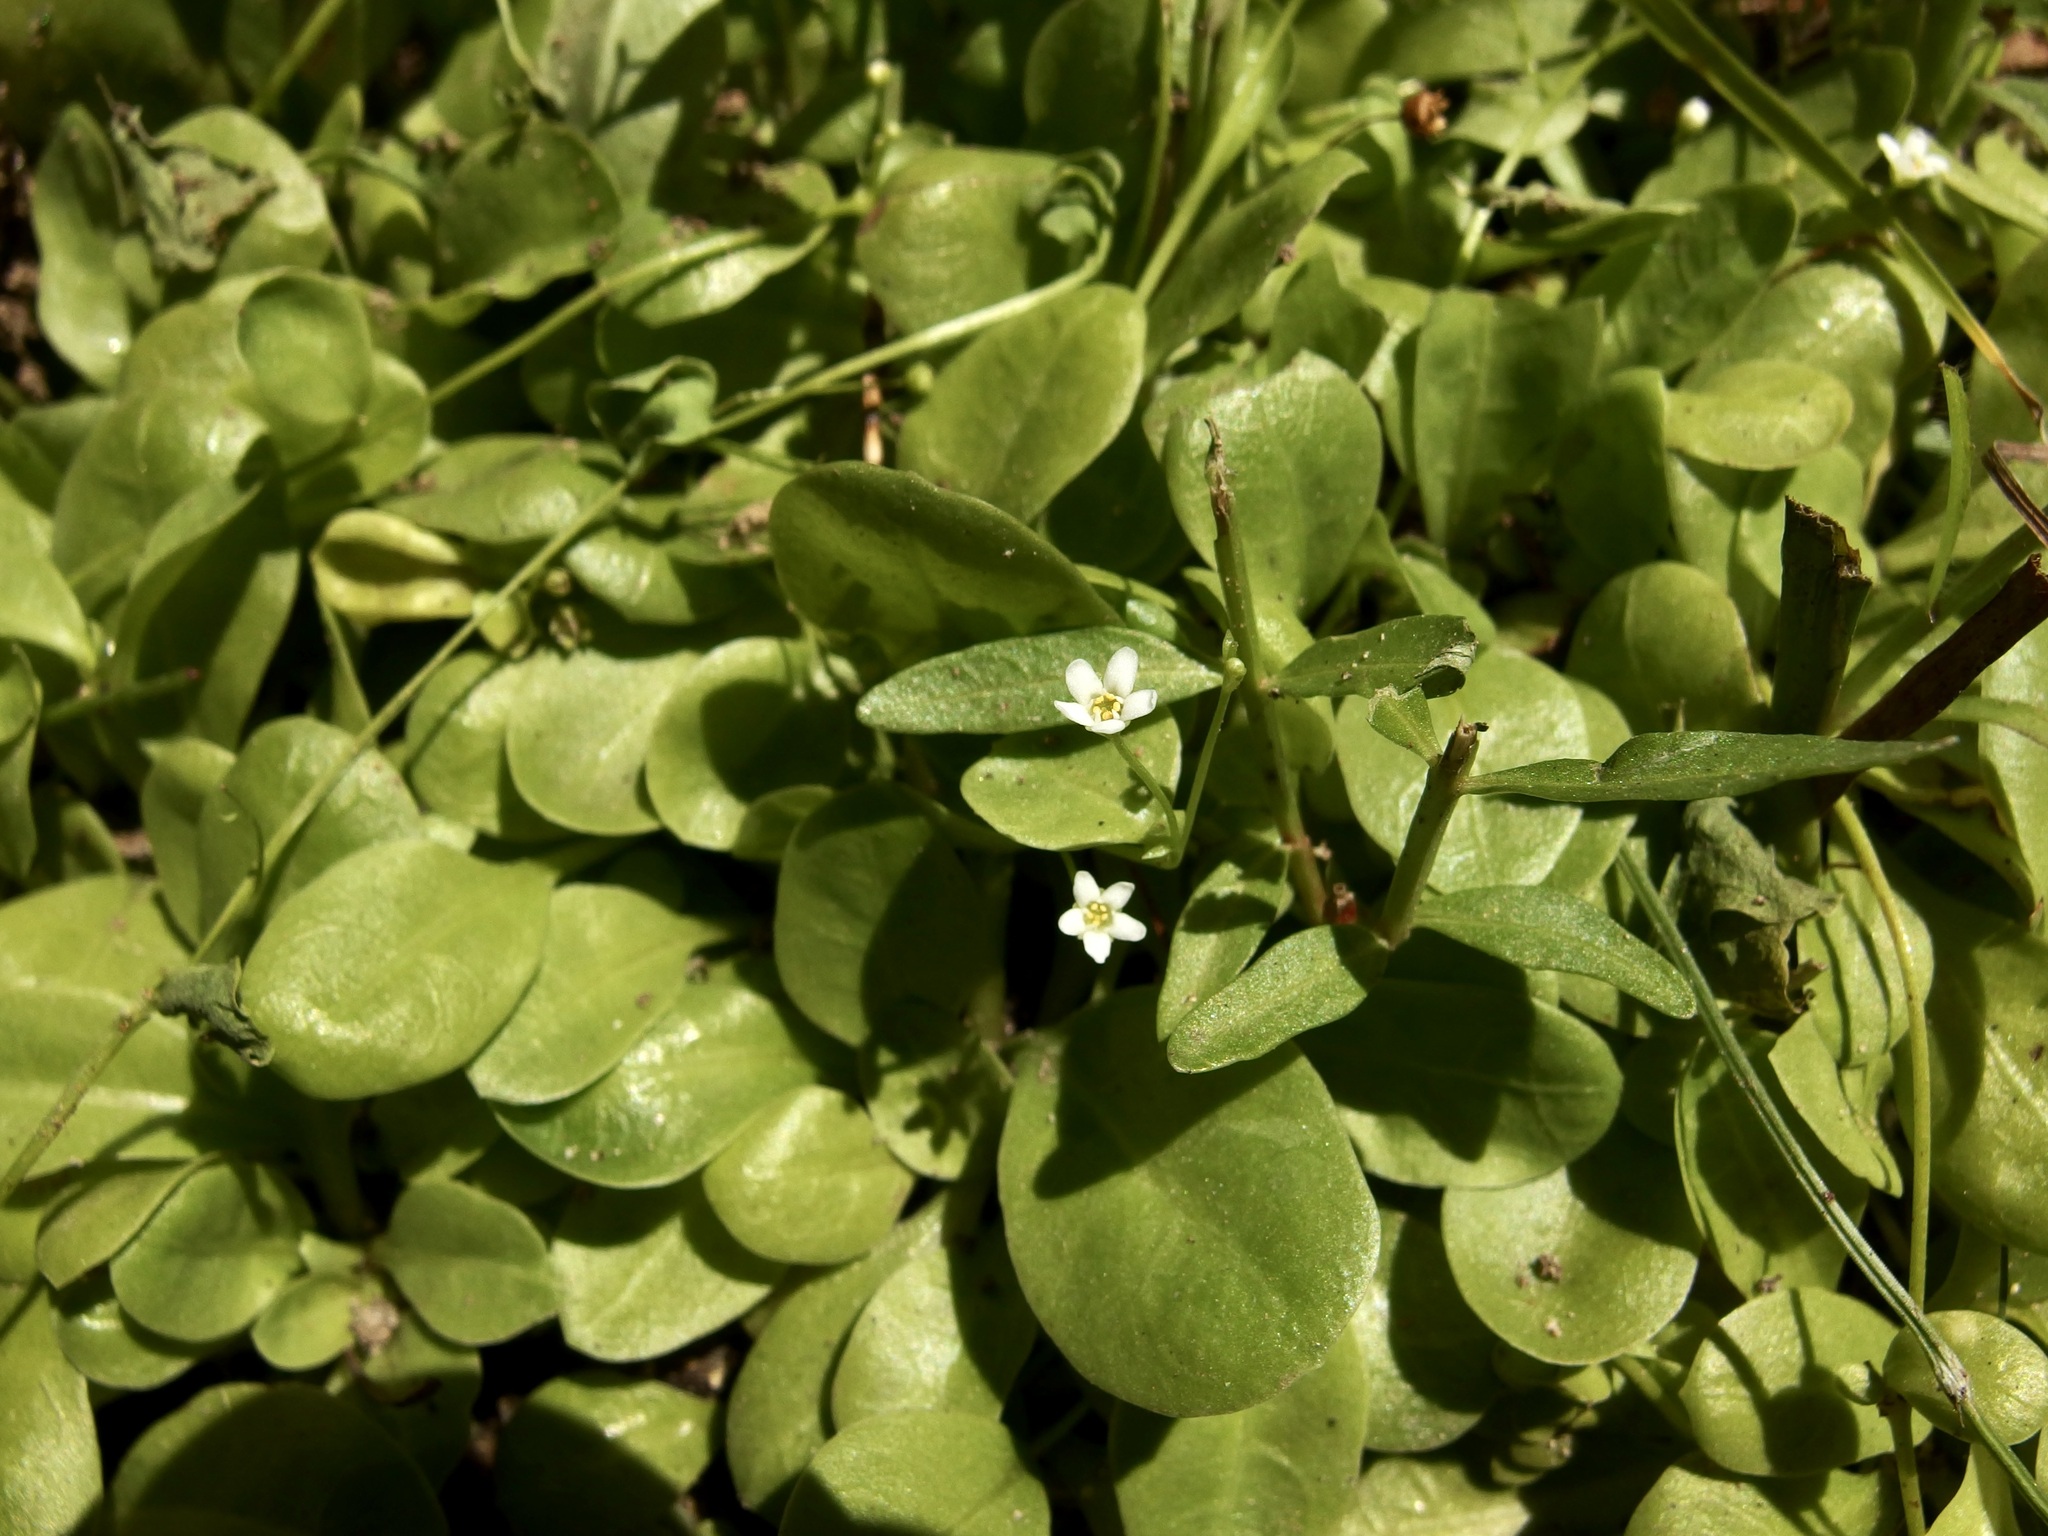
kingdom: Plantae
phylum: Tracheophyta
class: Magnoliopsida
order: Ericales
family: Primulaceae
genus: Samolus
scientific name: Samolus vagans
